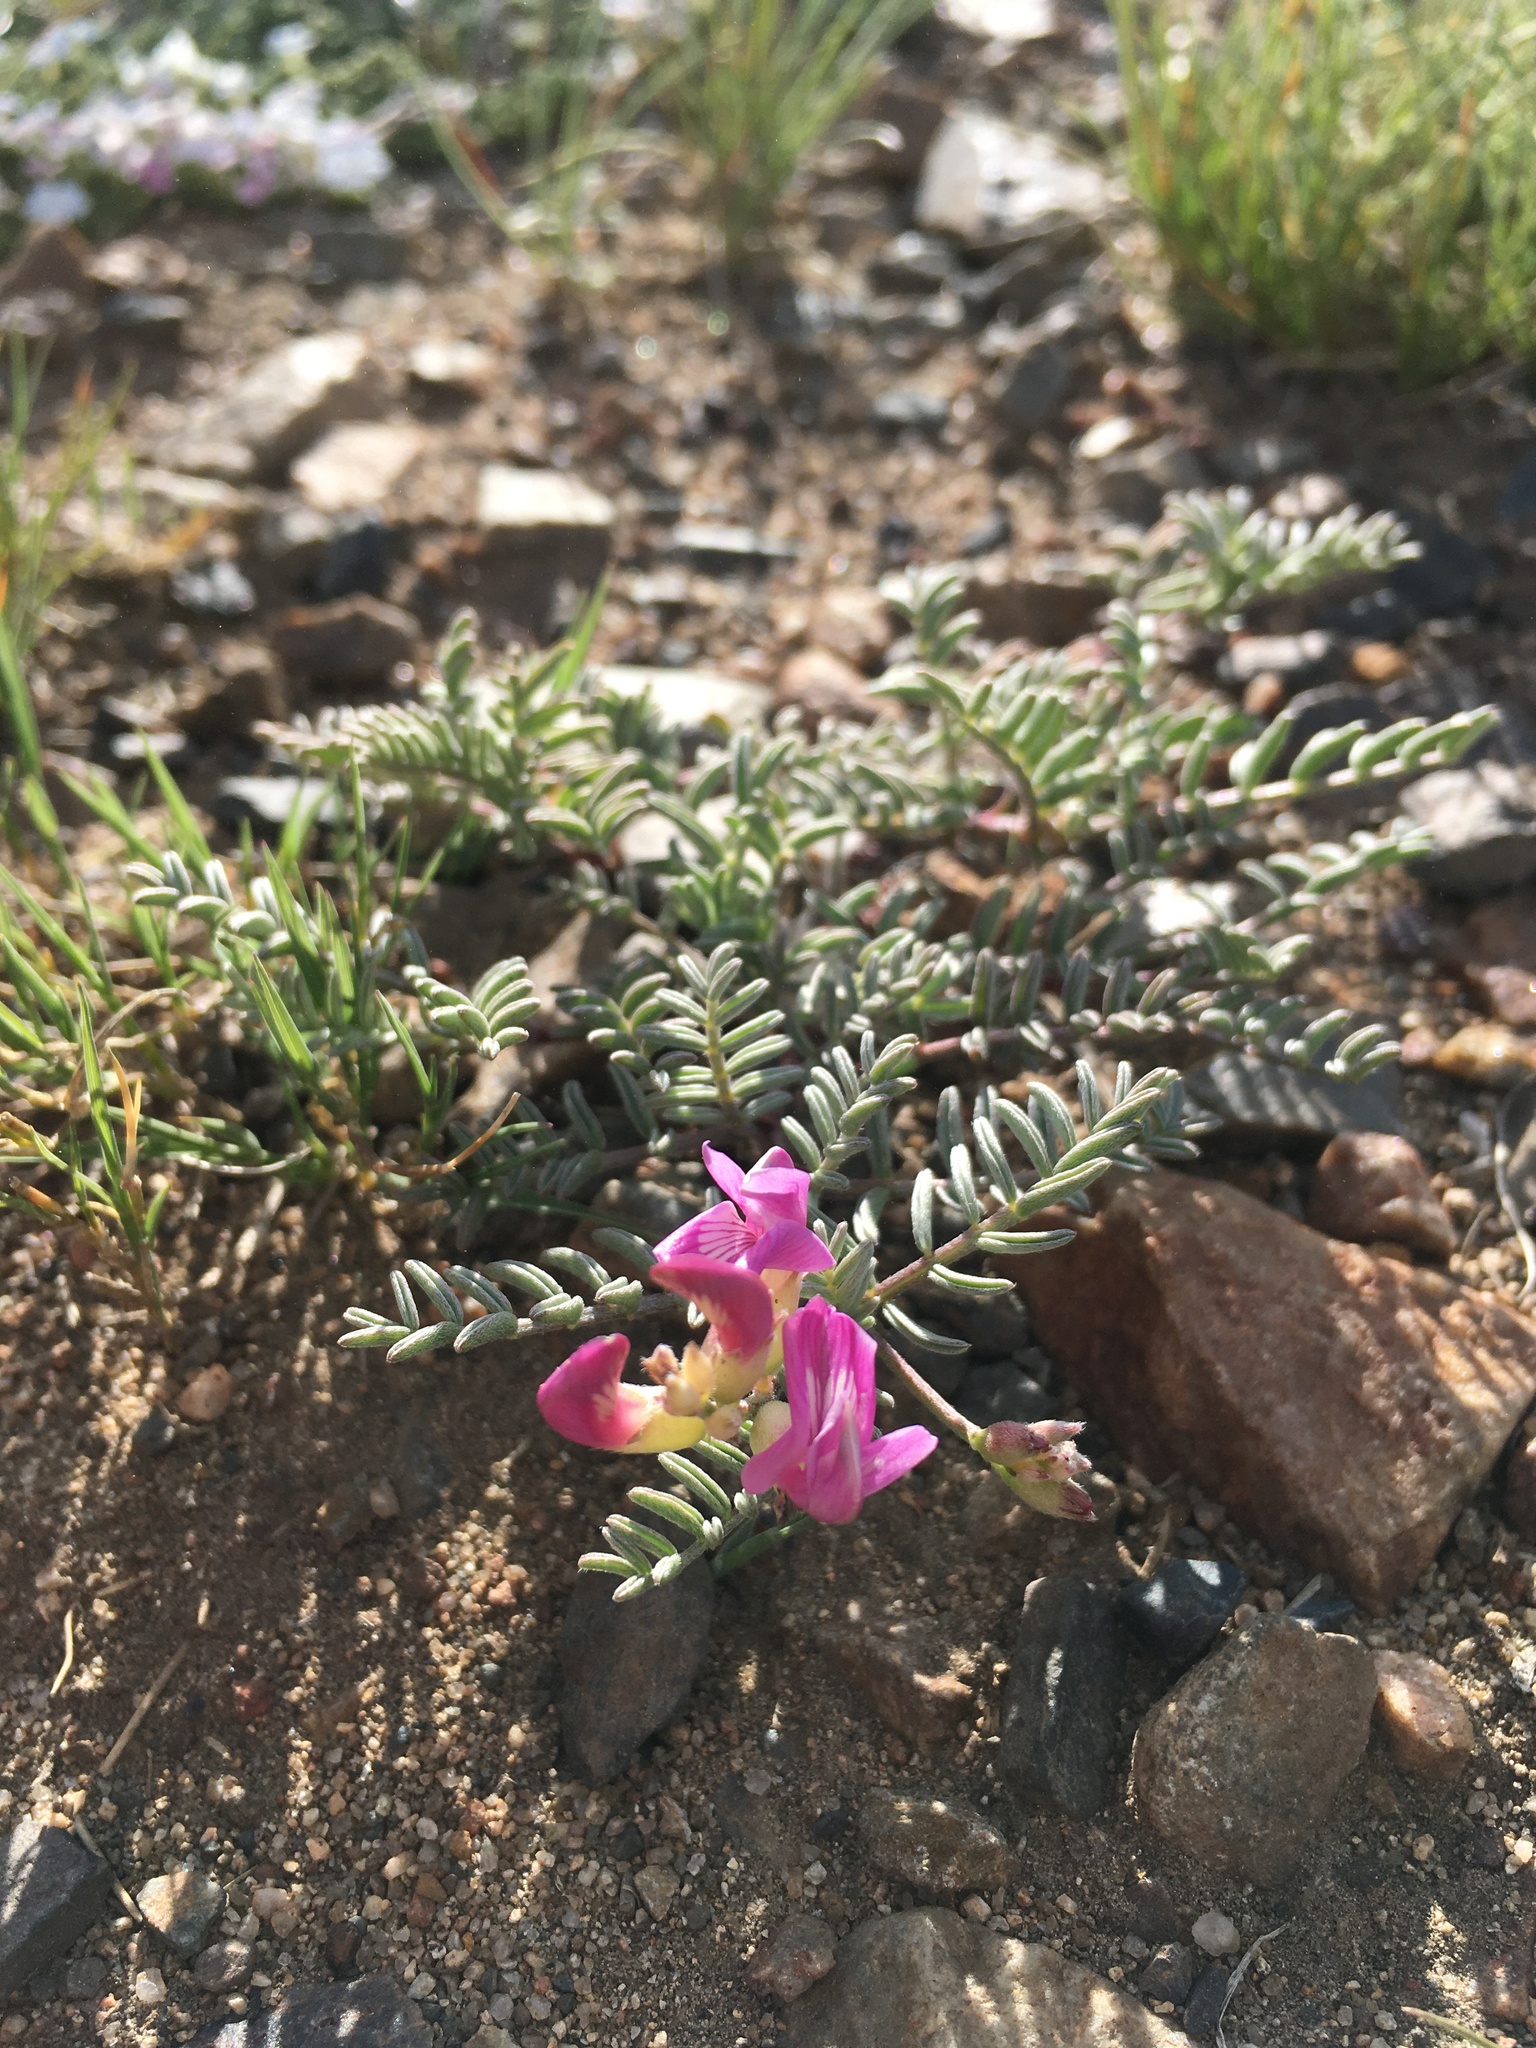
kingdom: Plantae
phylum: Tracheophyta
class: Magnoliopsida
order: Fabales
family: Fabaceae
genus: Astragalus
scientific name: Astragalus whitneyi
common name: Balloonpod milkvetch
